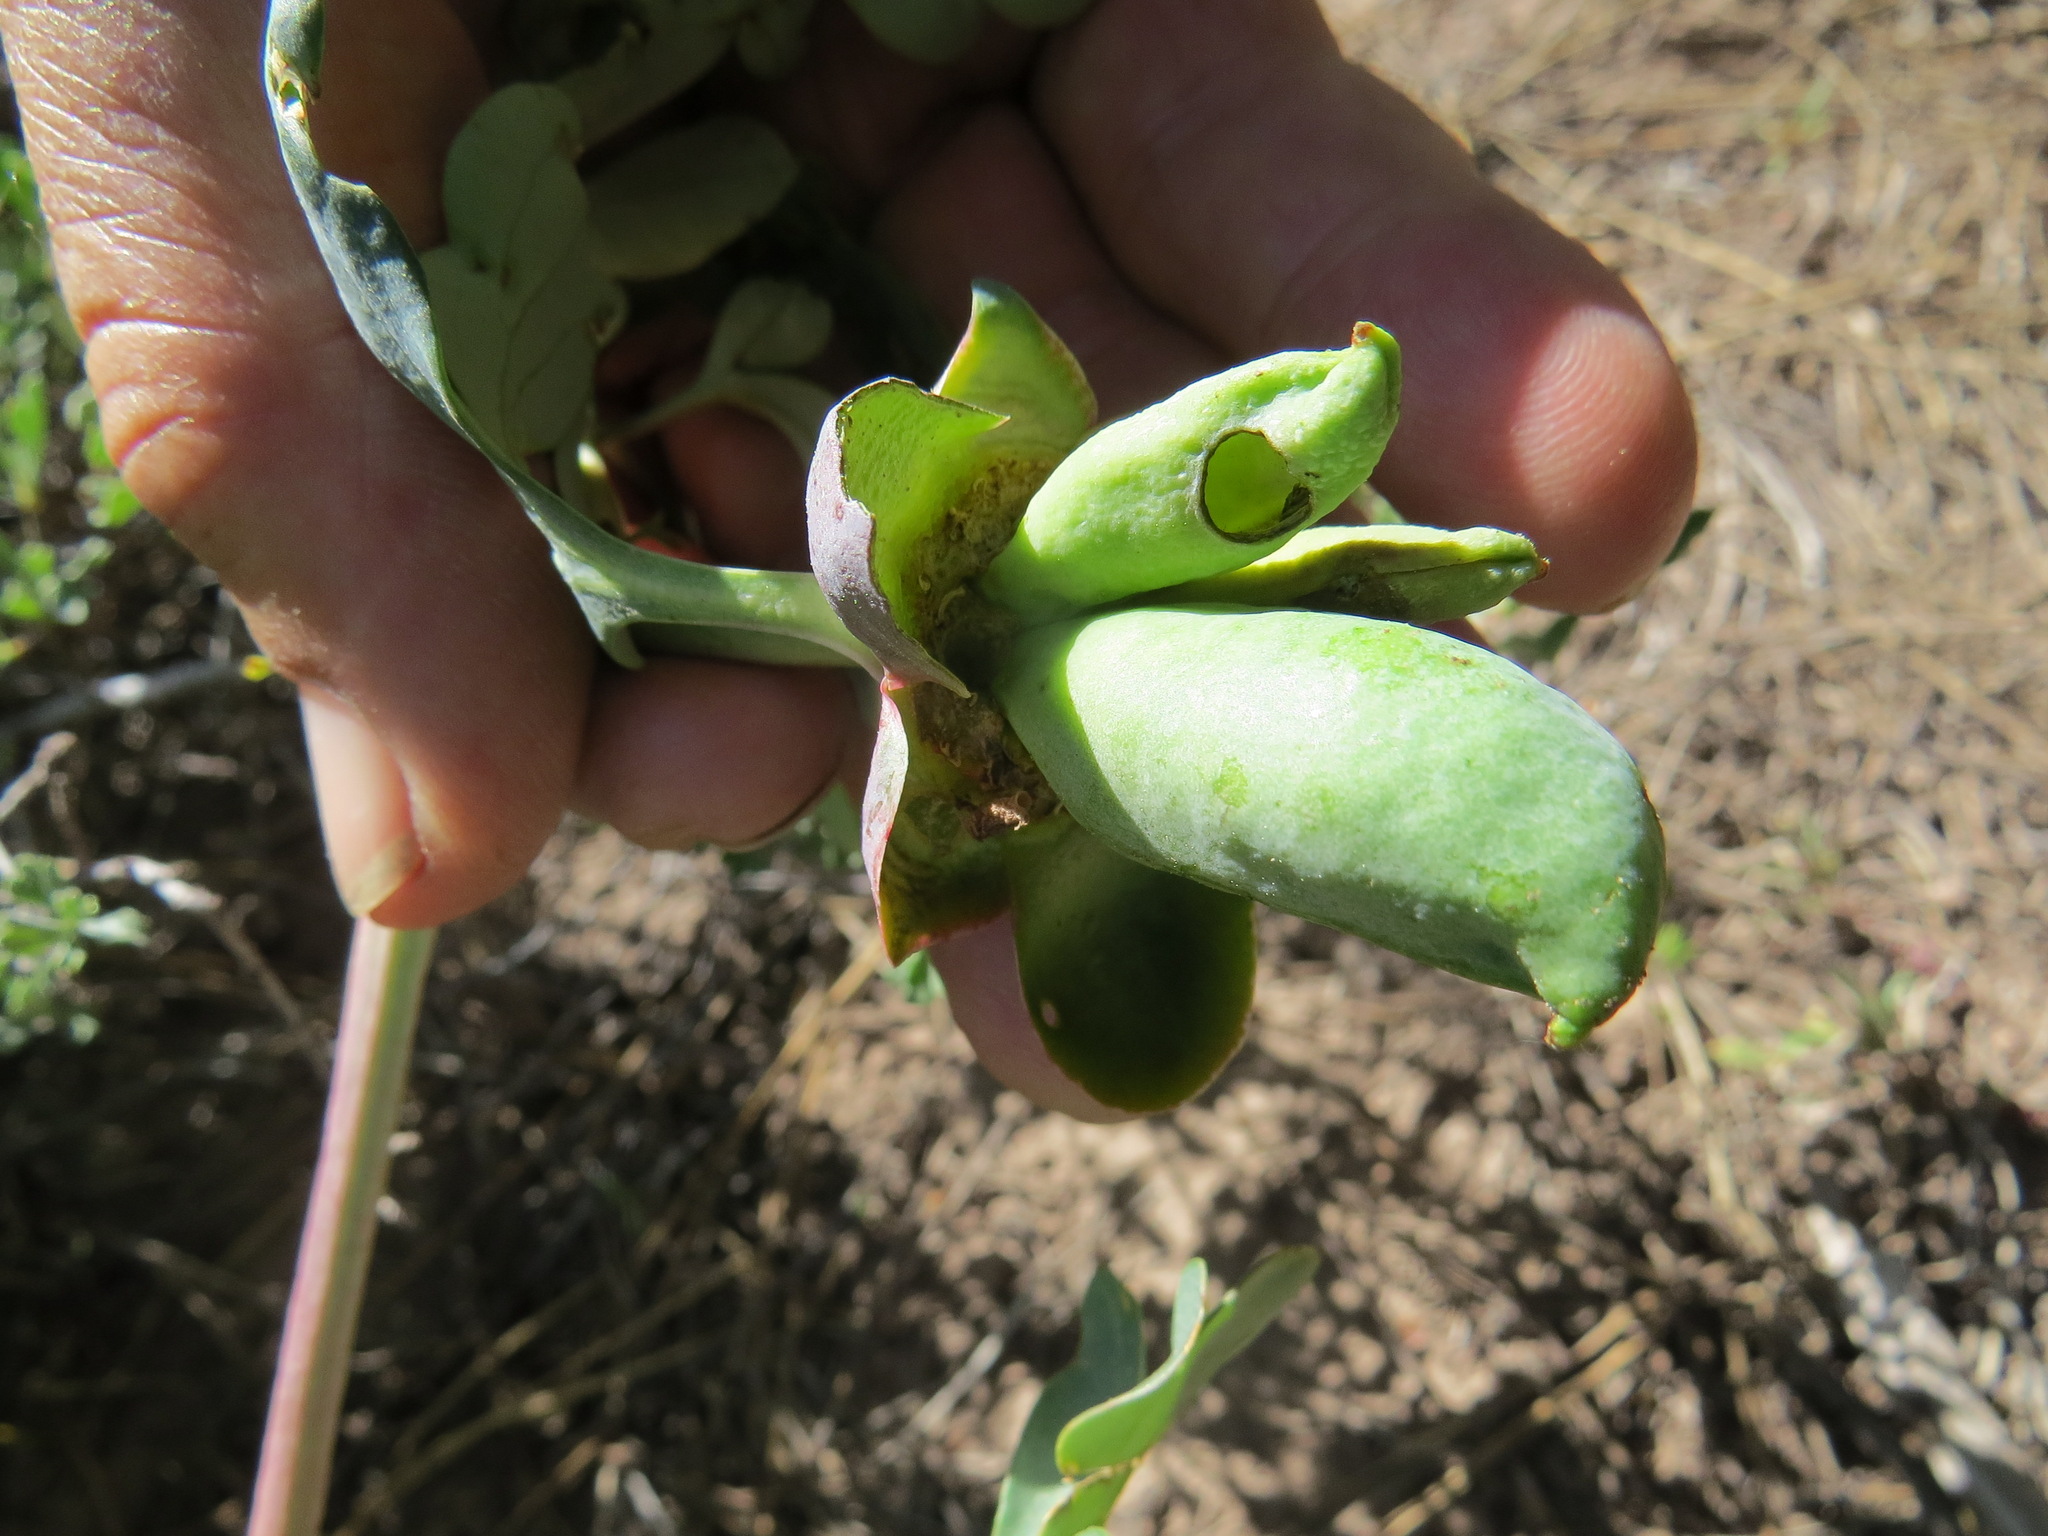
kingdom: Plantae
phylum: Tracheophyta
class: Magnoliopsida
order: Saxifragales
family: Paeoniaceae
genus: Paeonia
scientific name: Paeonia brownii
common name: Brown's peony
